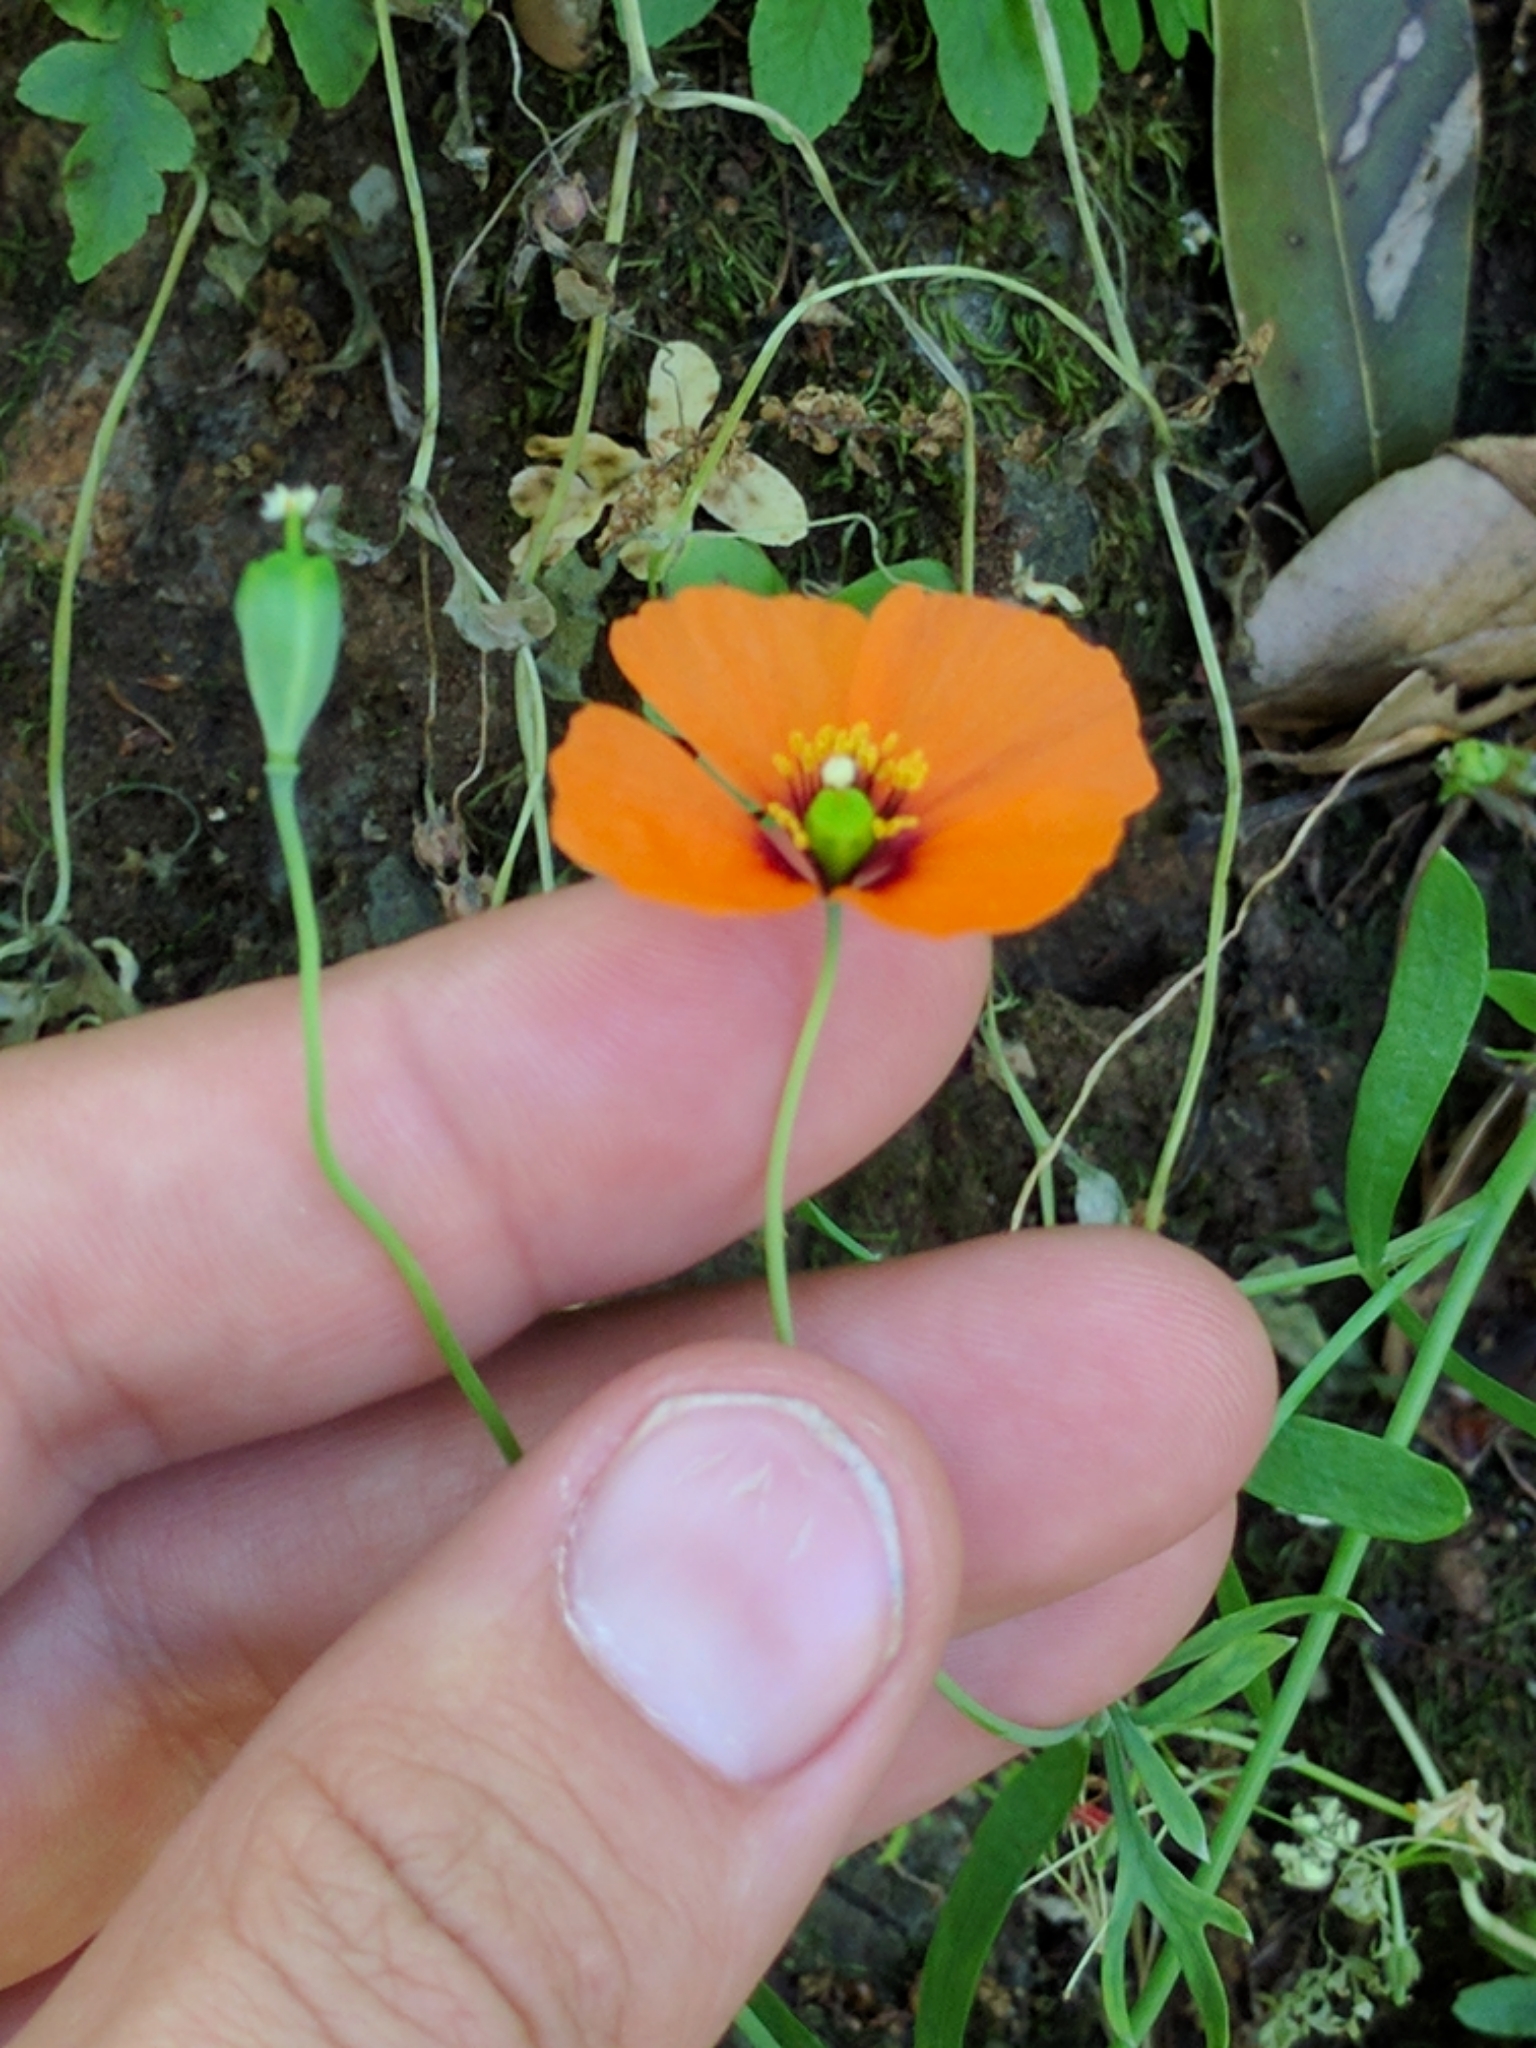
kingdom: Plantae
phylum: Tracheophyta
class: Magnoliopsida
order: Ranunculales
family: Papaveraceae
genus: Stylomecon
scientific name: Stylomecon heterophylla
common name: Flaming-poppy
